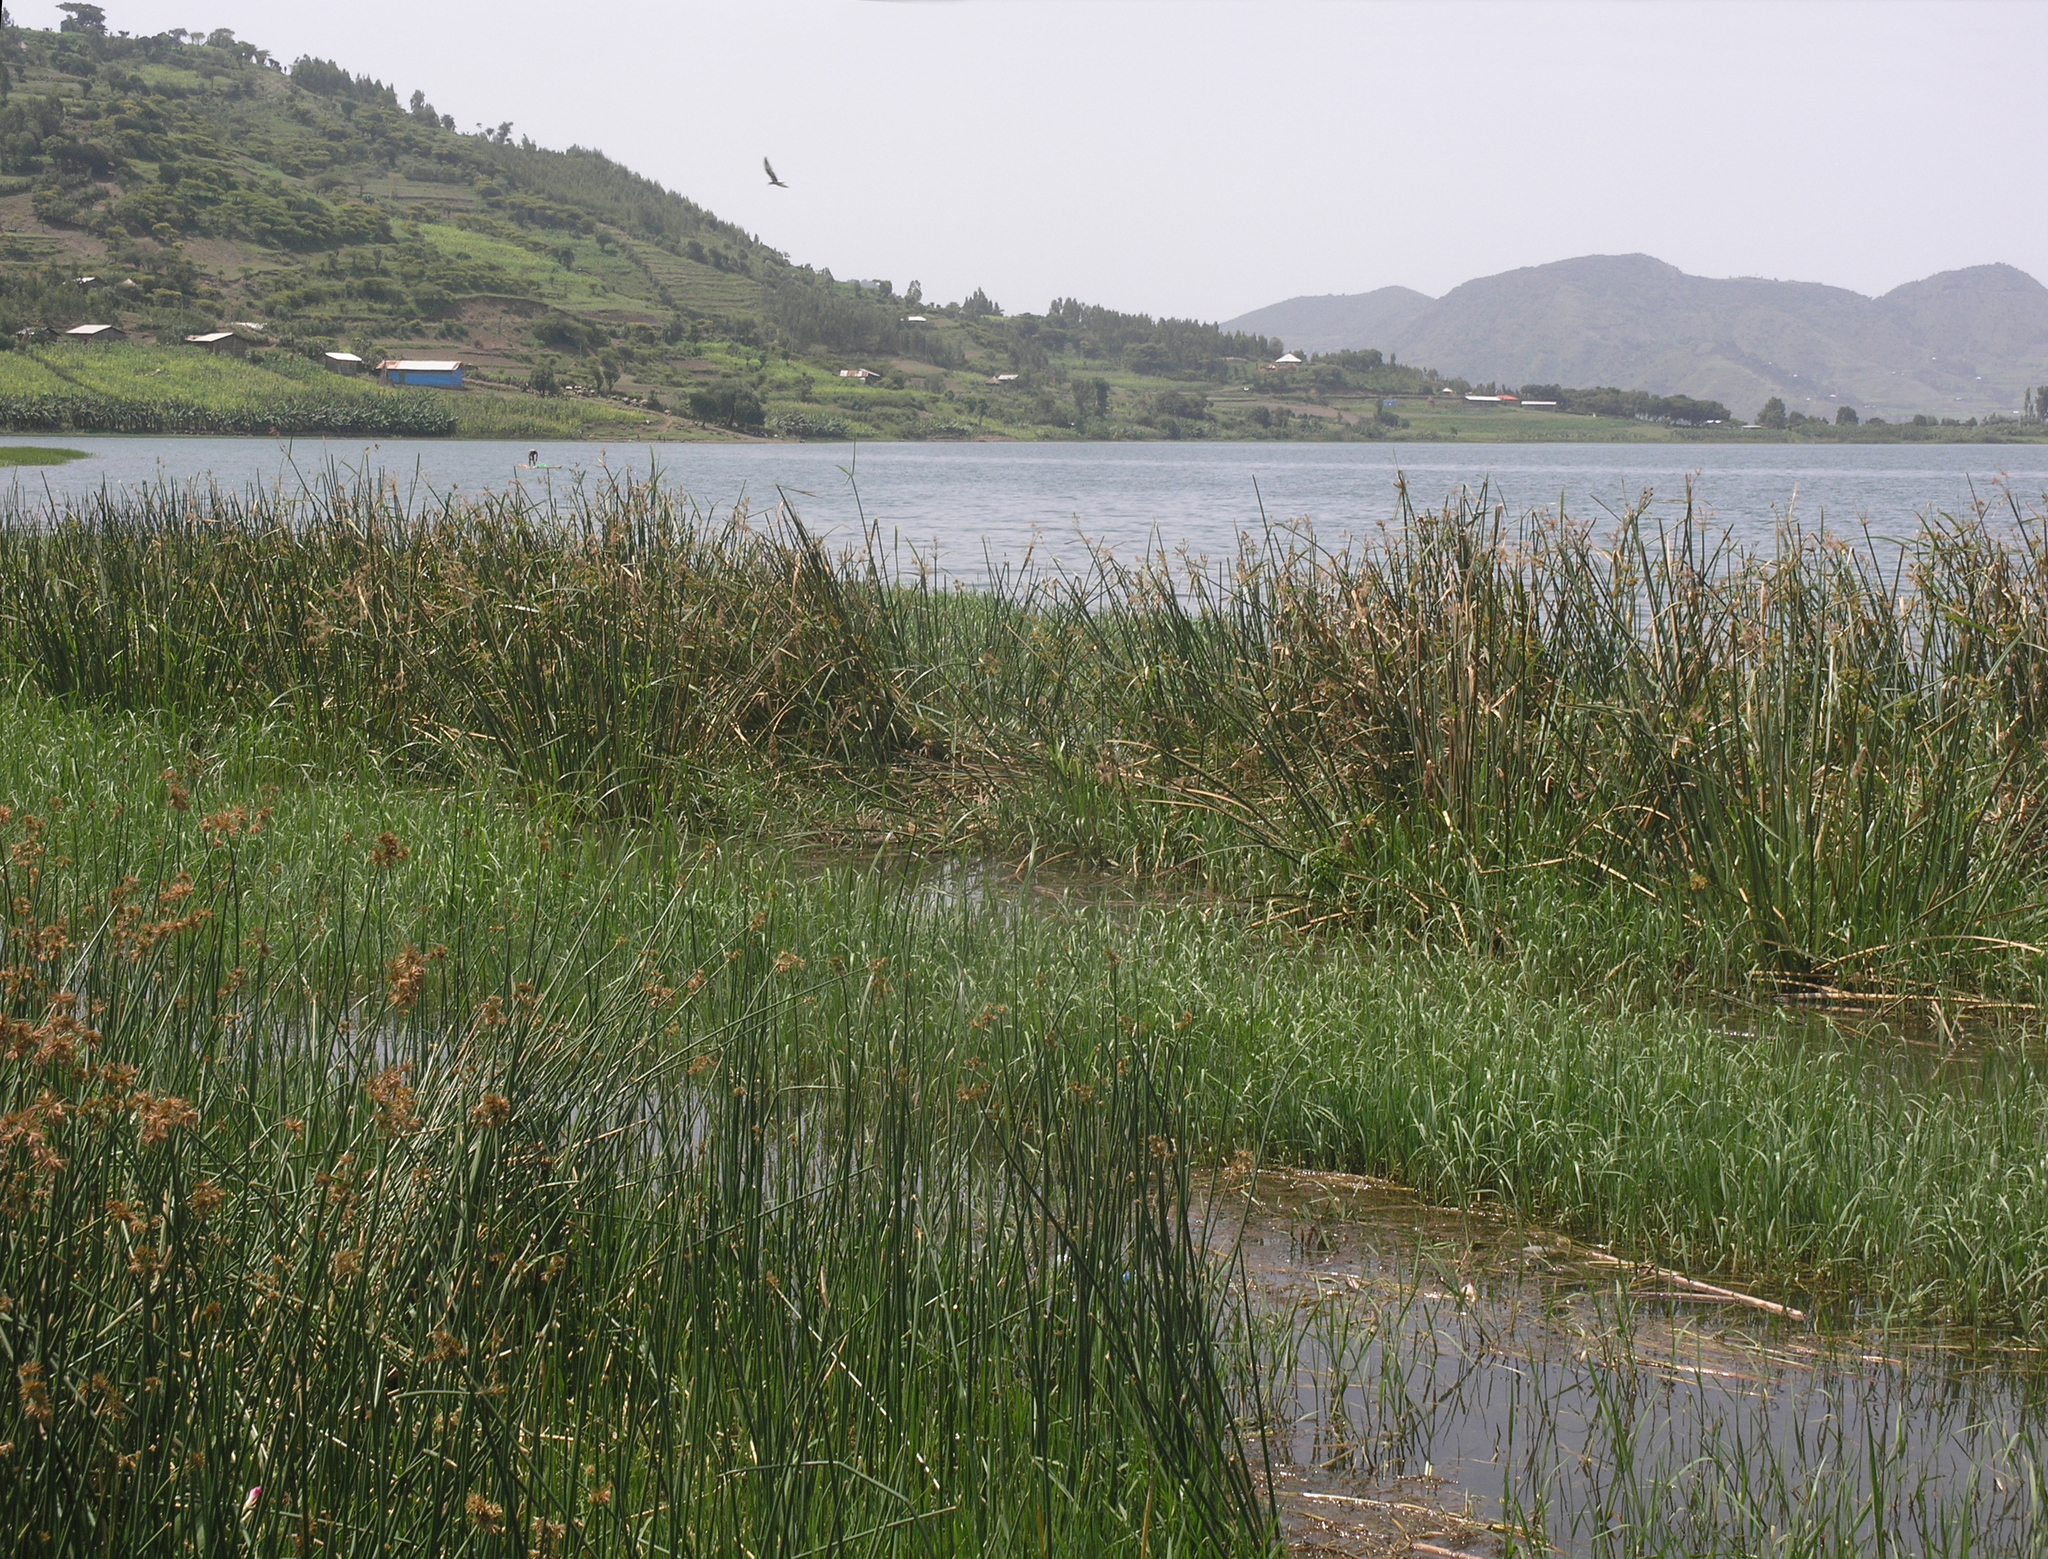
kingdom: Animalia
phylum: Arthropoda
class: Insecta
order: Odonata
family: Coenagrionidae
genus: Pseudagrion
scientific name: Pseudagrion nubicum
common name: Bluetail sprite
